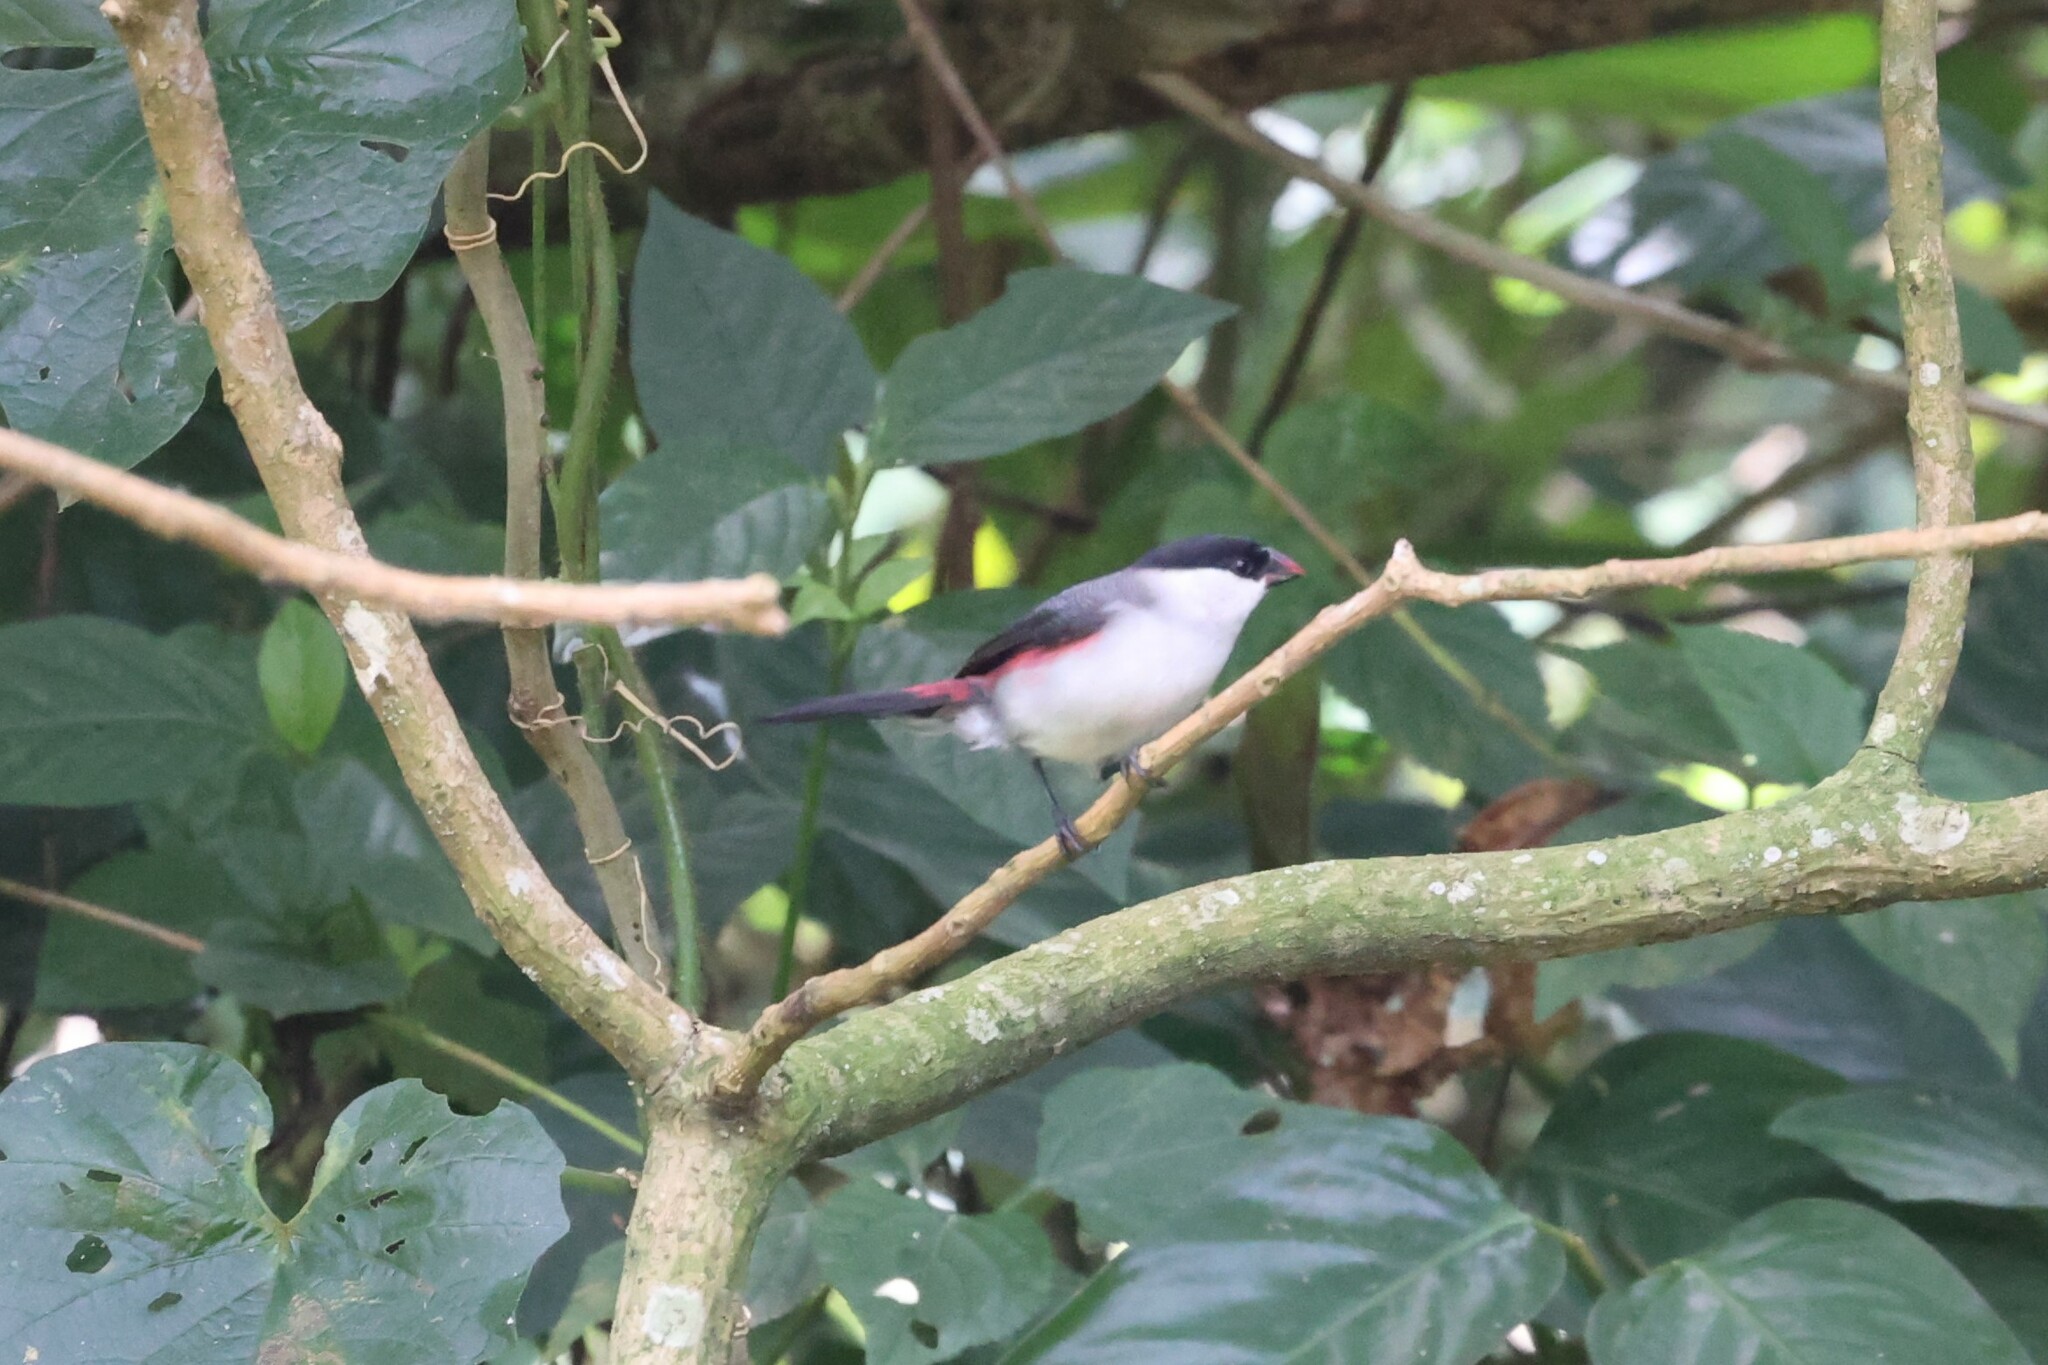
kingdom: Animalia
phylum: Chordata
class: Aves
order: Passeriformes
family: Estrildidae
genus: Estrilda
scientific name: Estrilda nonnula
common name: Black-crowned waxbill
